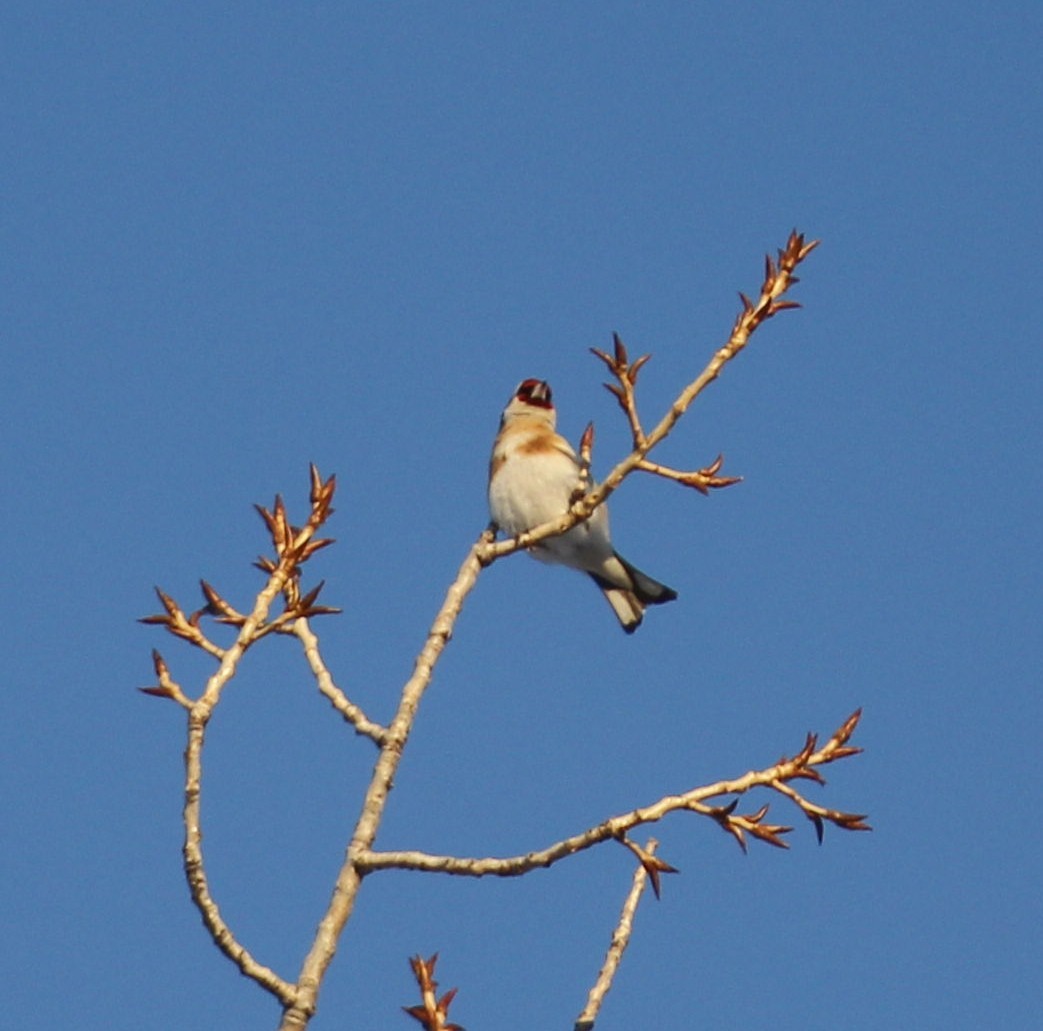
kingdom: Animalia
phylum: Chordata
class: Aves
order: Passeriformes
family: Fringillidae
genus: Carduelis
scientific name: Carduelis carduelis
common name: European goldfinch
